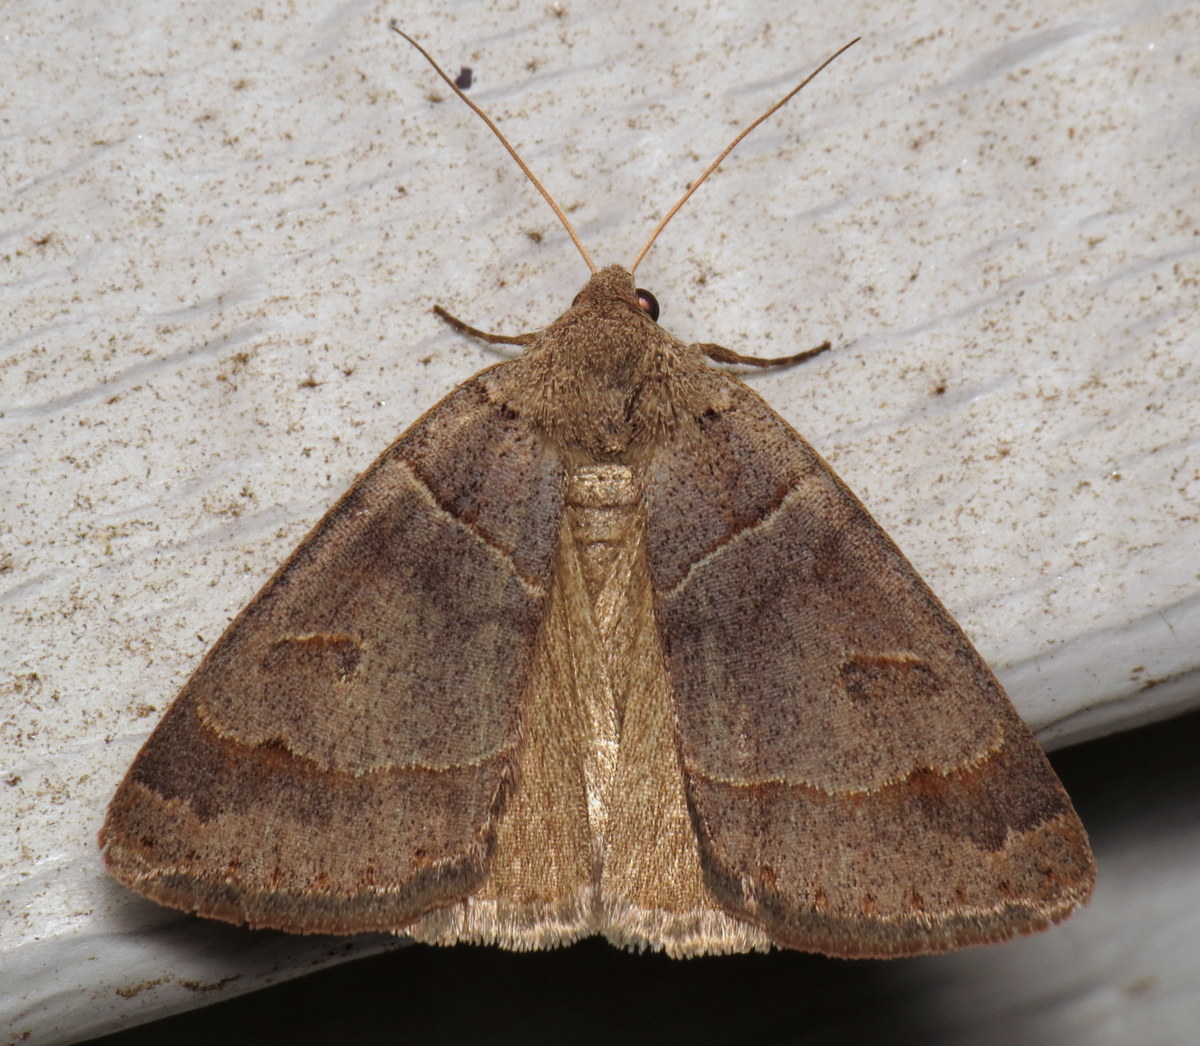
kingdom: Animalia
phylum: Arthropoda
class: Insecta
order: Lepidoptera
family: Erebidae
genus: Phoberia
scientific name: Phoberia atomaris
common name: Common oak moth
